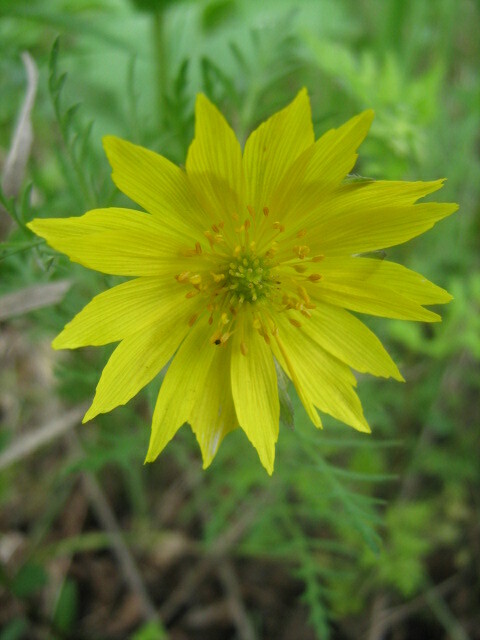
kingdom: Plantae
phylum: Tracheophyta
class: Magnoliopsida
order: Ranunculales
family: Ranunculaceae
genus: Adonis
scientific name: Adonis volgensis
